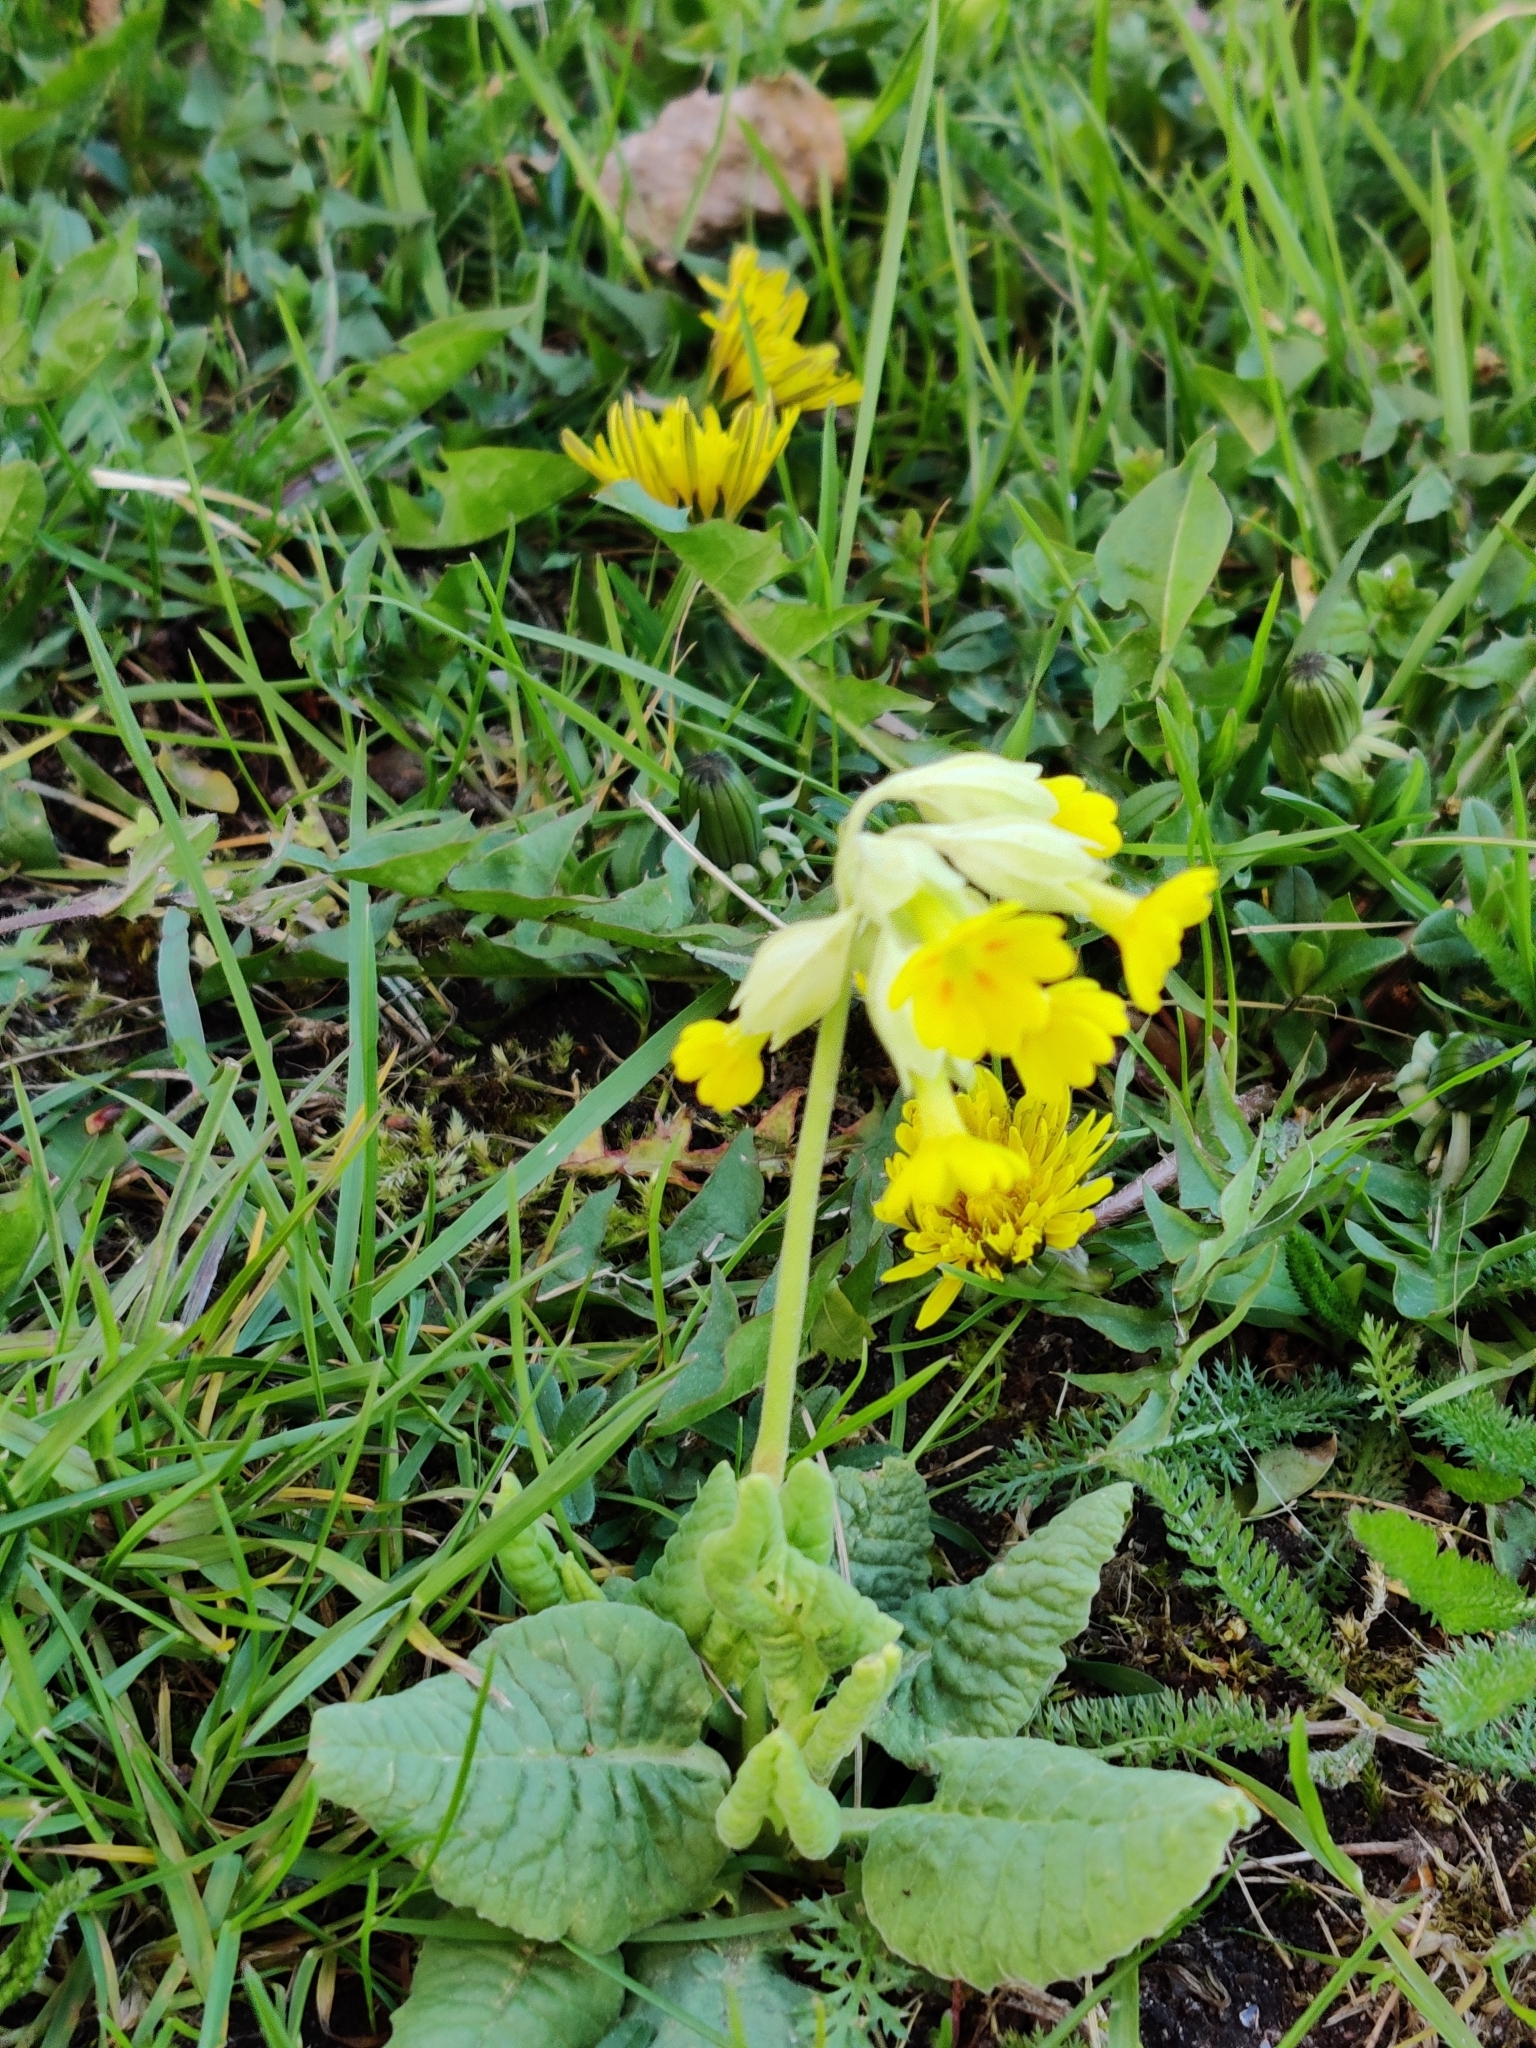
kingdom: Plantae
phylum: Tracheophyta
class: Magnoliopsida
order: Ericales
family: Primulaceae
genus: Primula
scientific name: Primula veris
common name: Cowslip
